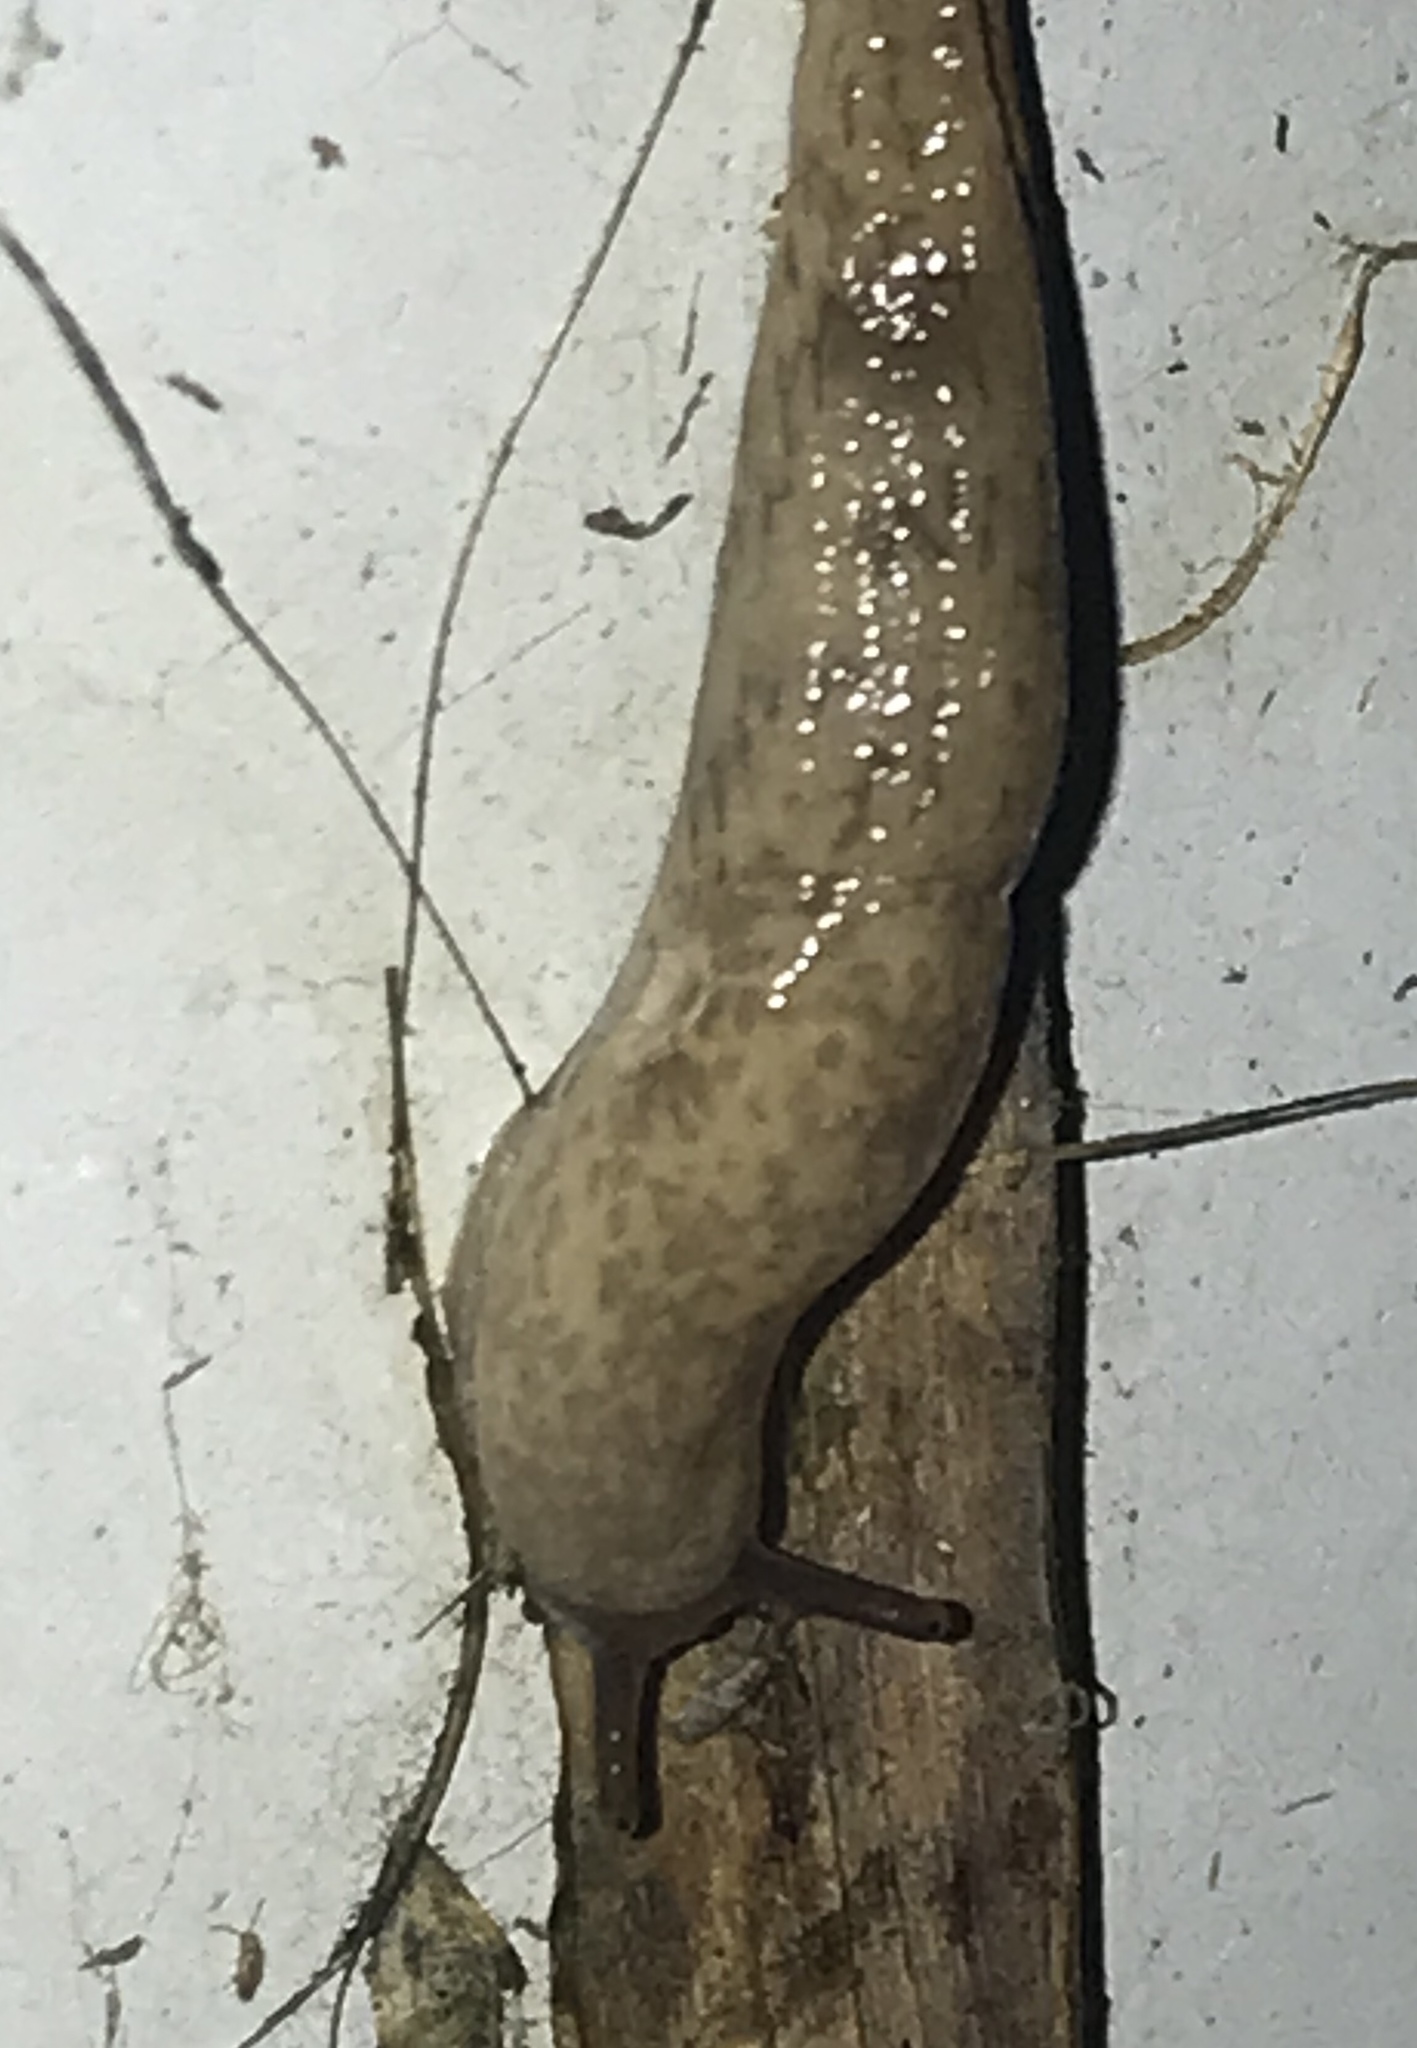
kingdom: Animalia
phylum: Mollusca
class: Gastropoda
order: Stylommatophora
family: Agriolimacidae
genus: Deroceras
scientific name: Deroceras reticulatum
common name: Gray field slug
